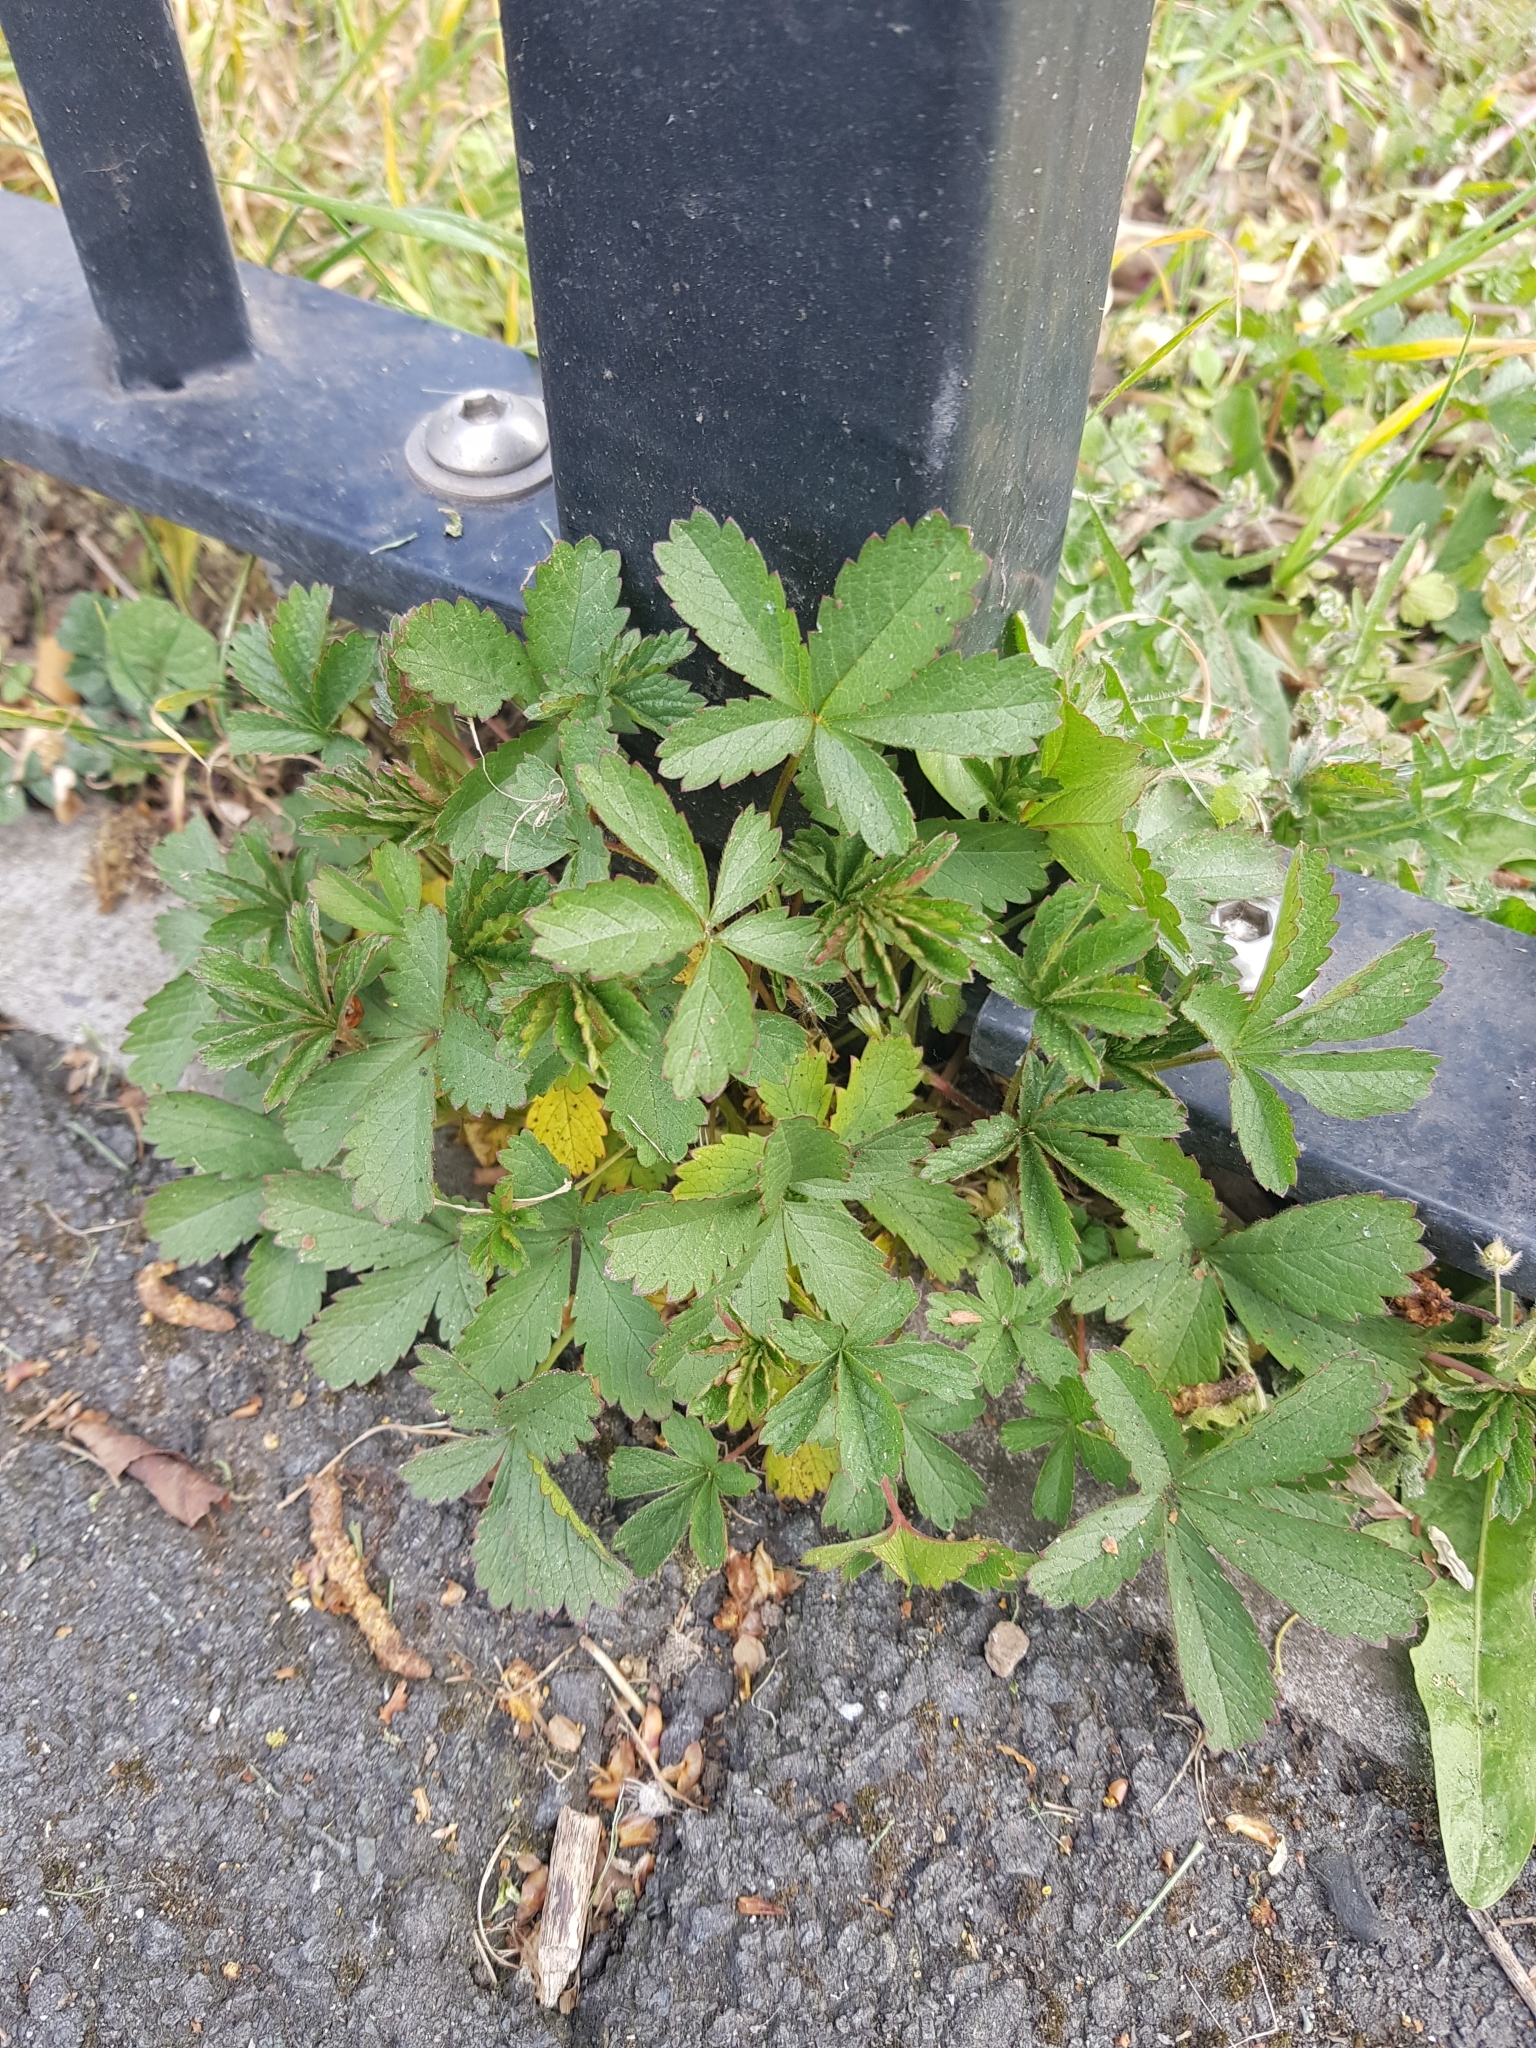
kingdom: Plantae
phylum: Tracheophyta
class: Magnoliopsida
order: Rosales
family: Rosaceae
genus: Potentilla
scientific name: Potentilla reptans
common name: Creeping cinquefoil
